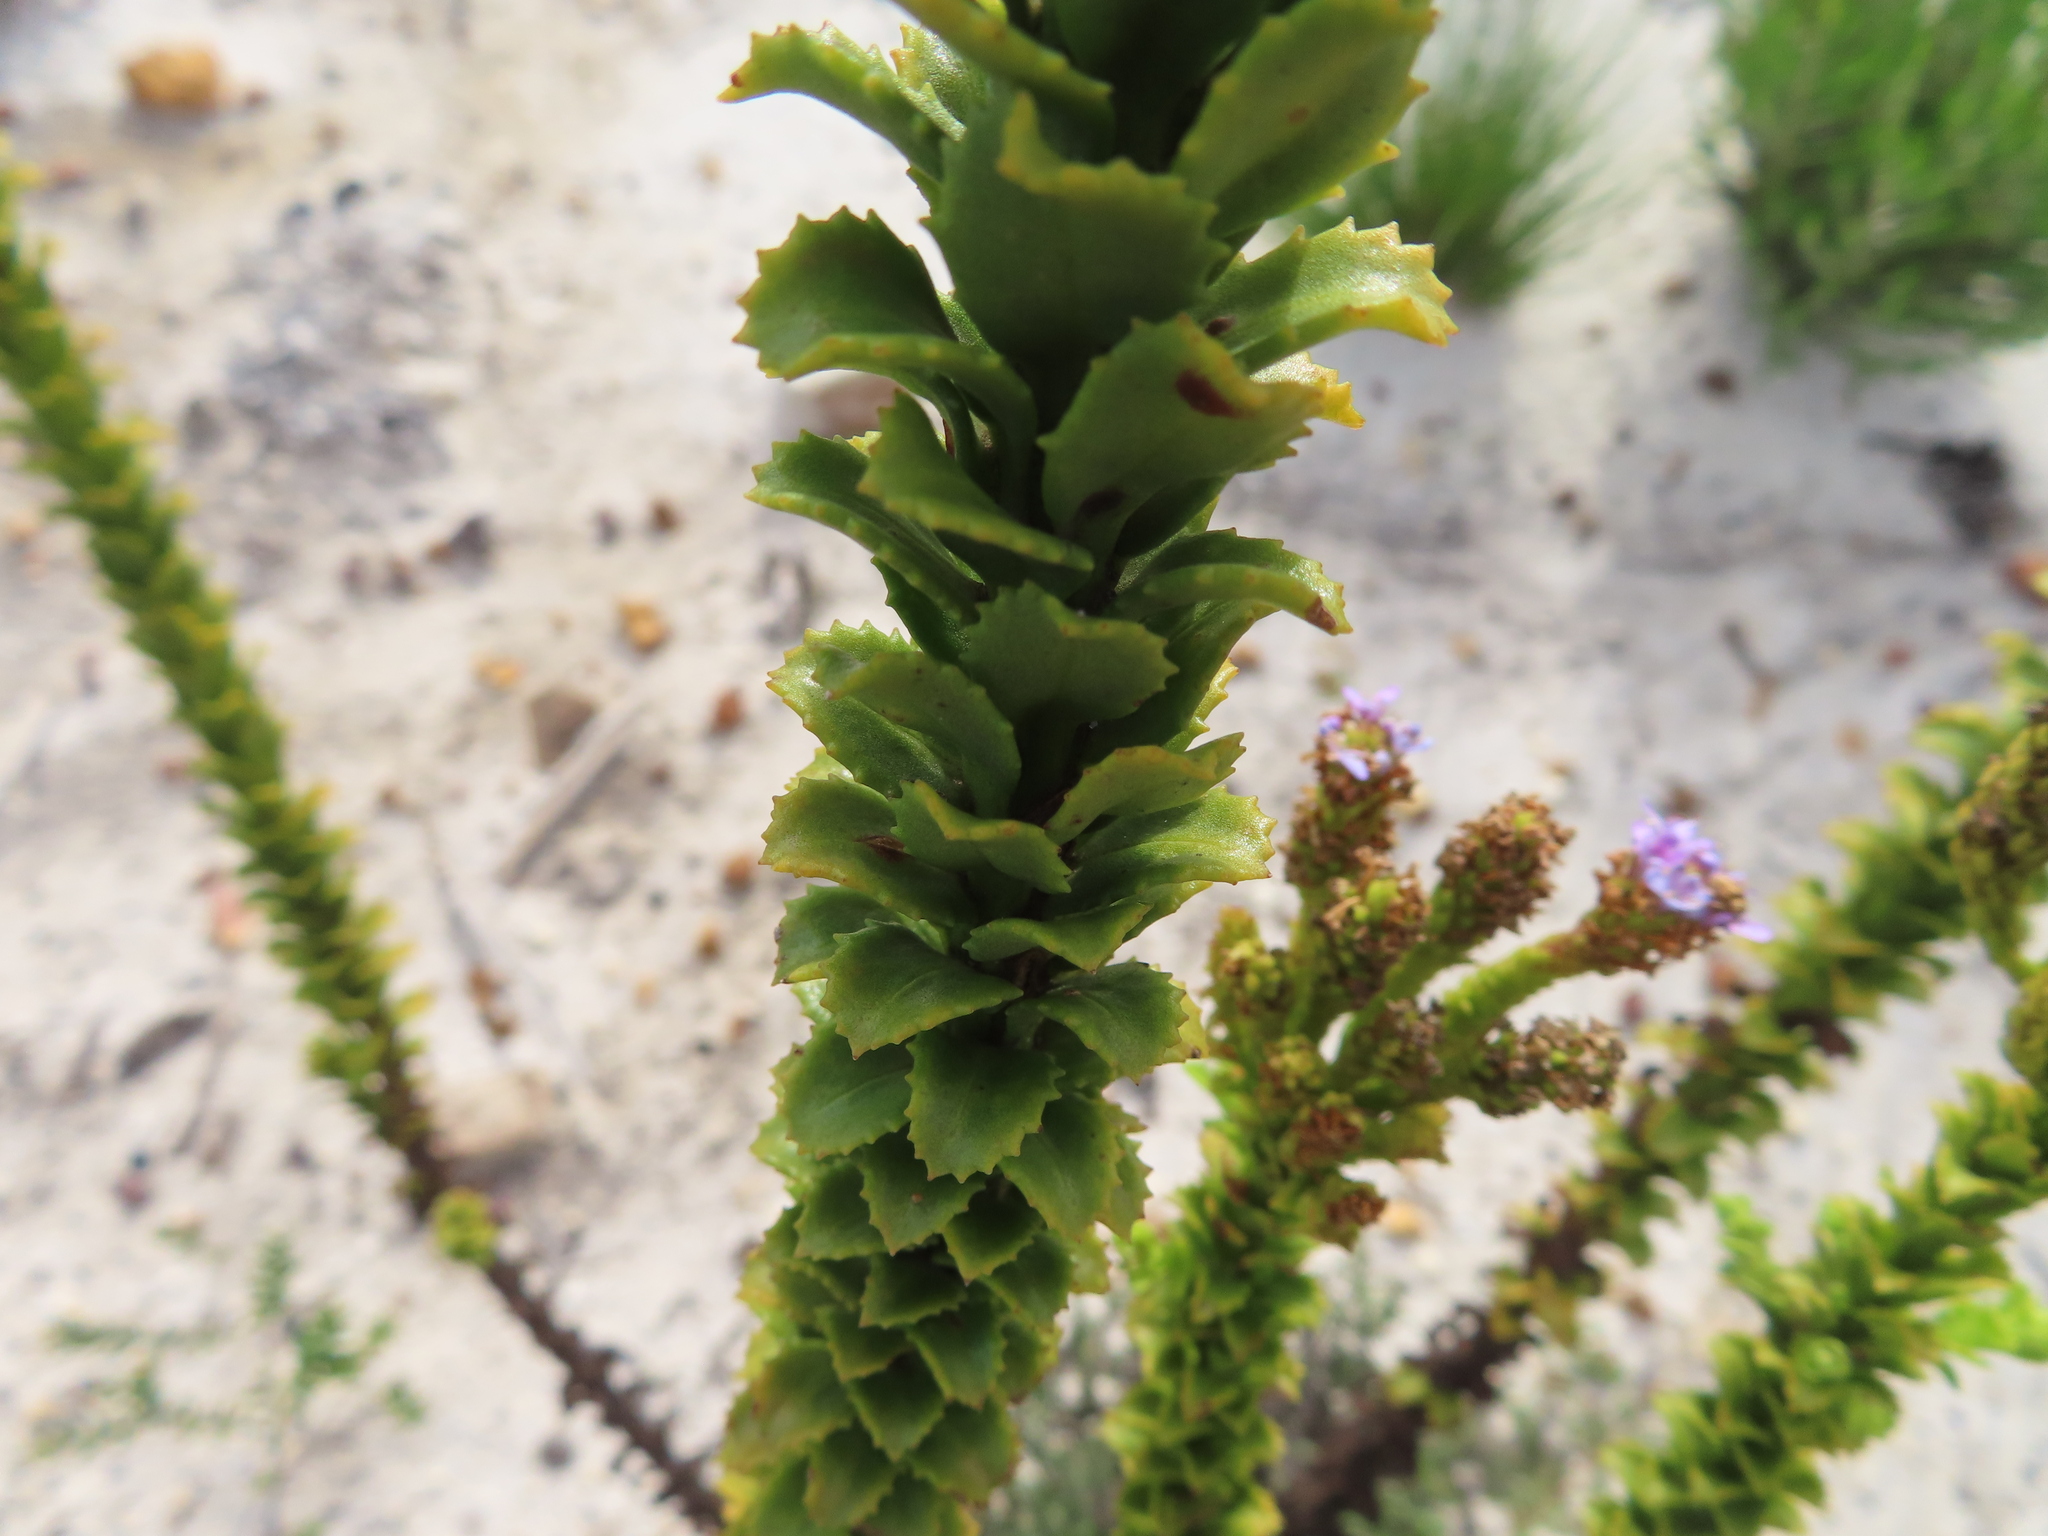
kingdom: Plantae
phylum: Tracheophyta
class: Magnoliopsida
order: Lamiales
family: Scrophulariaceae
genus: Pseudoselago
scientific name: Pseudoselago serrata
